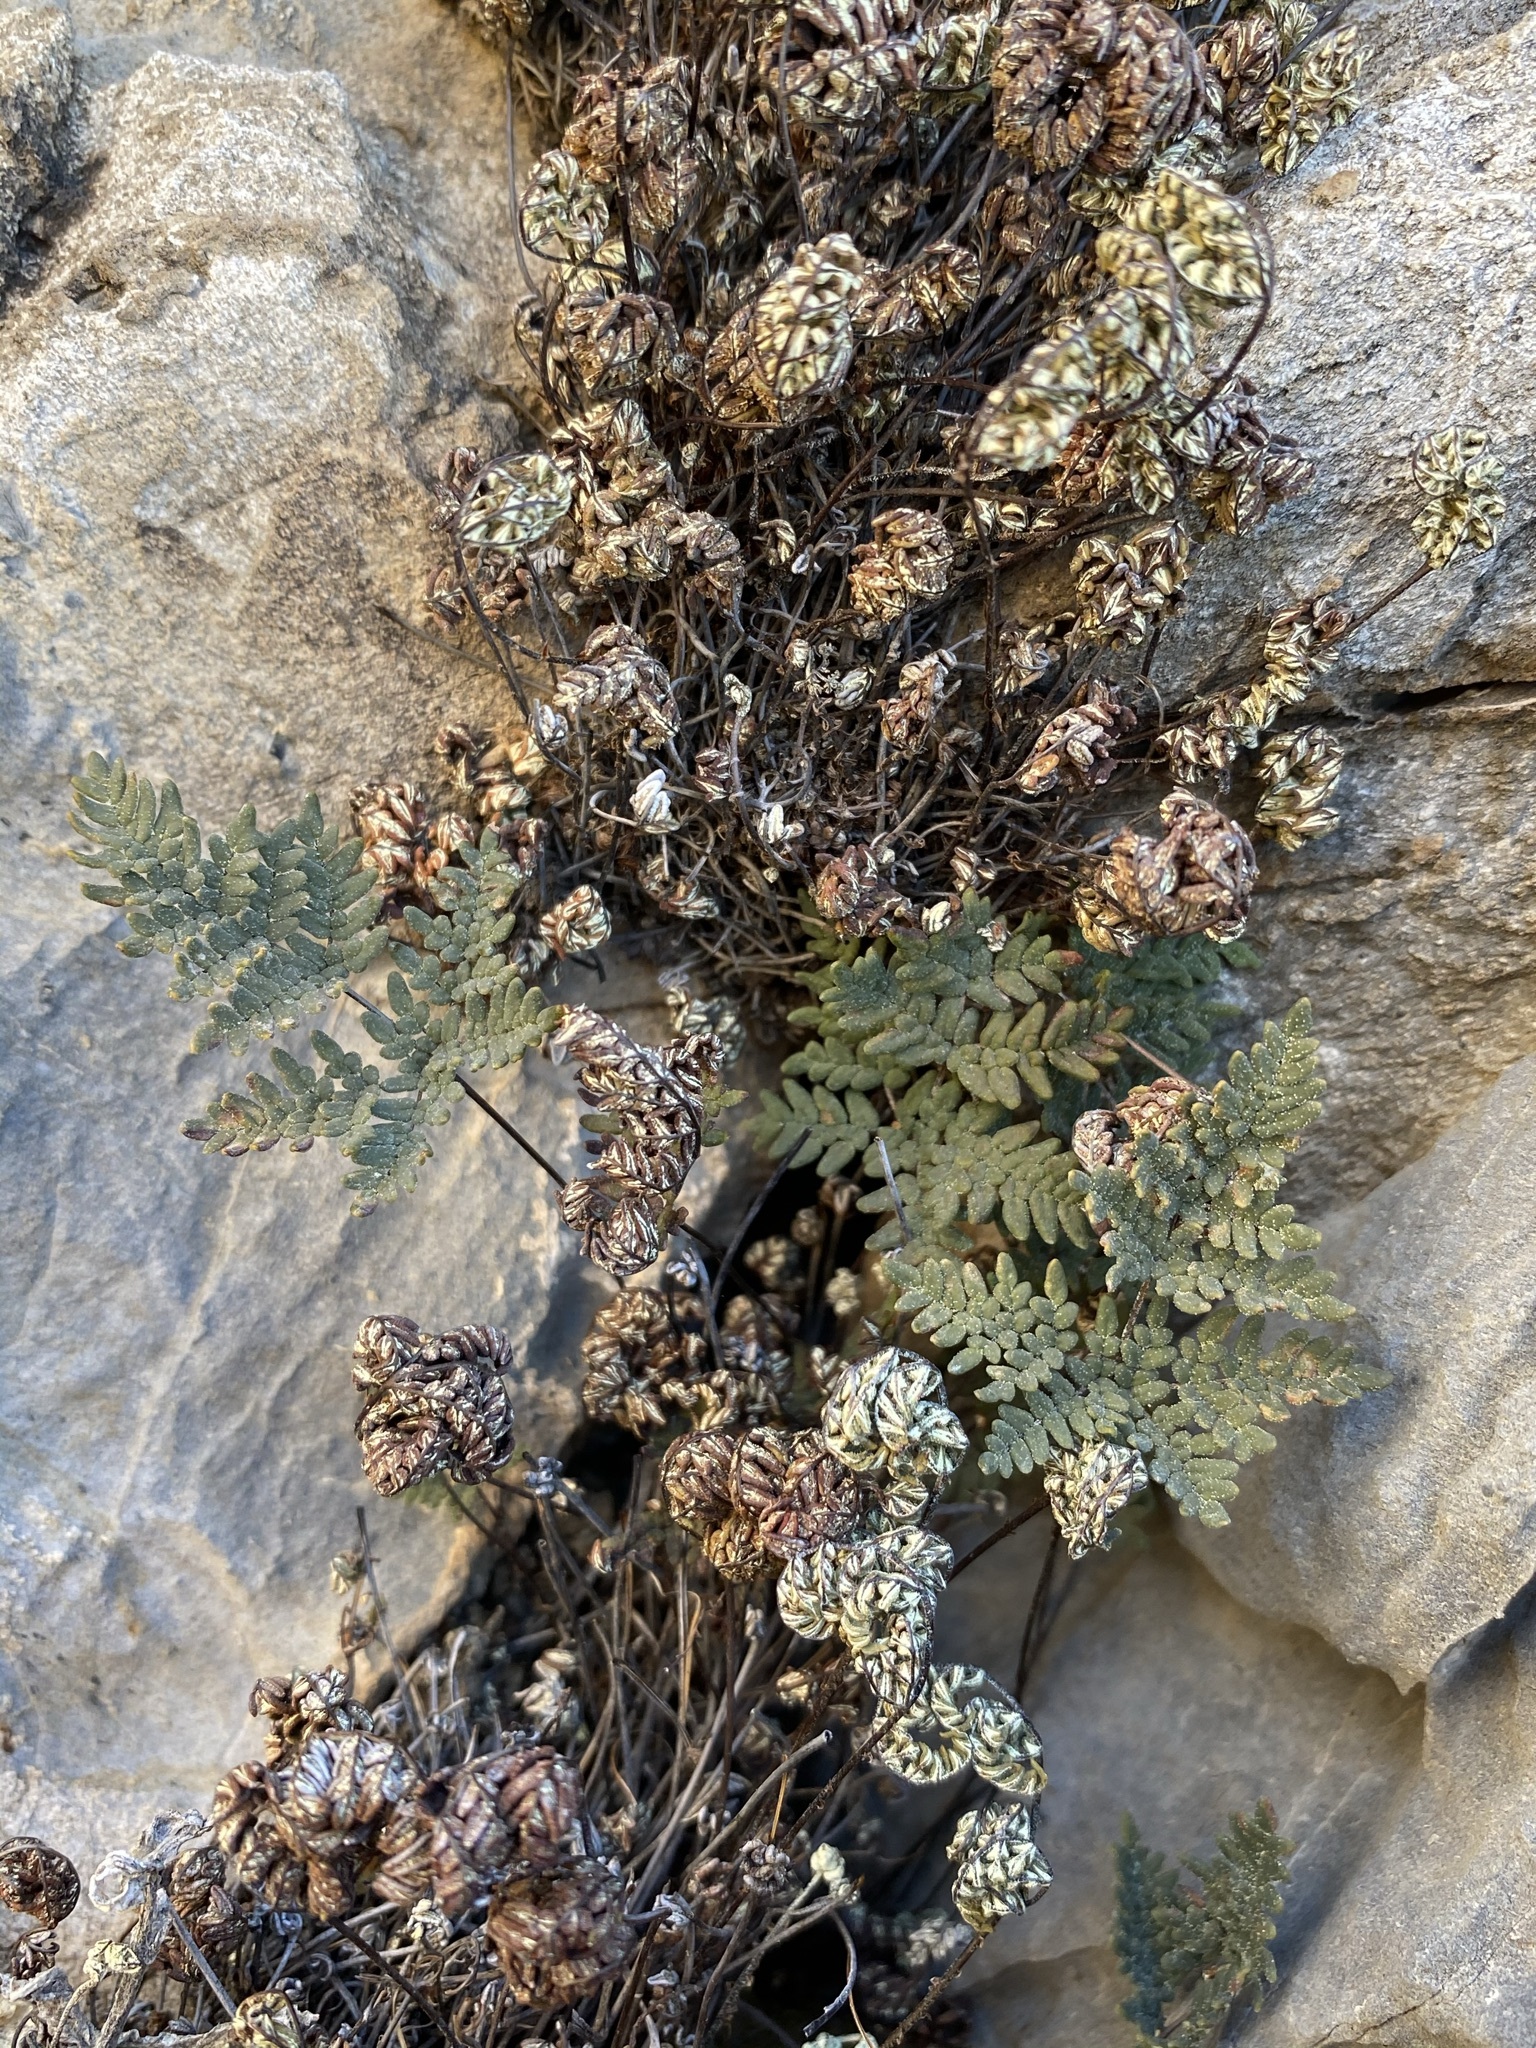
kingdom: Plantae
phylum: Tracheophyta
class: Polypodiopsida
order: Polypodiales
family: Pteridaceae
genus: Notholaena
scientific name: Notholaena neglecta
